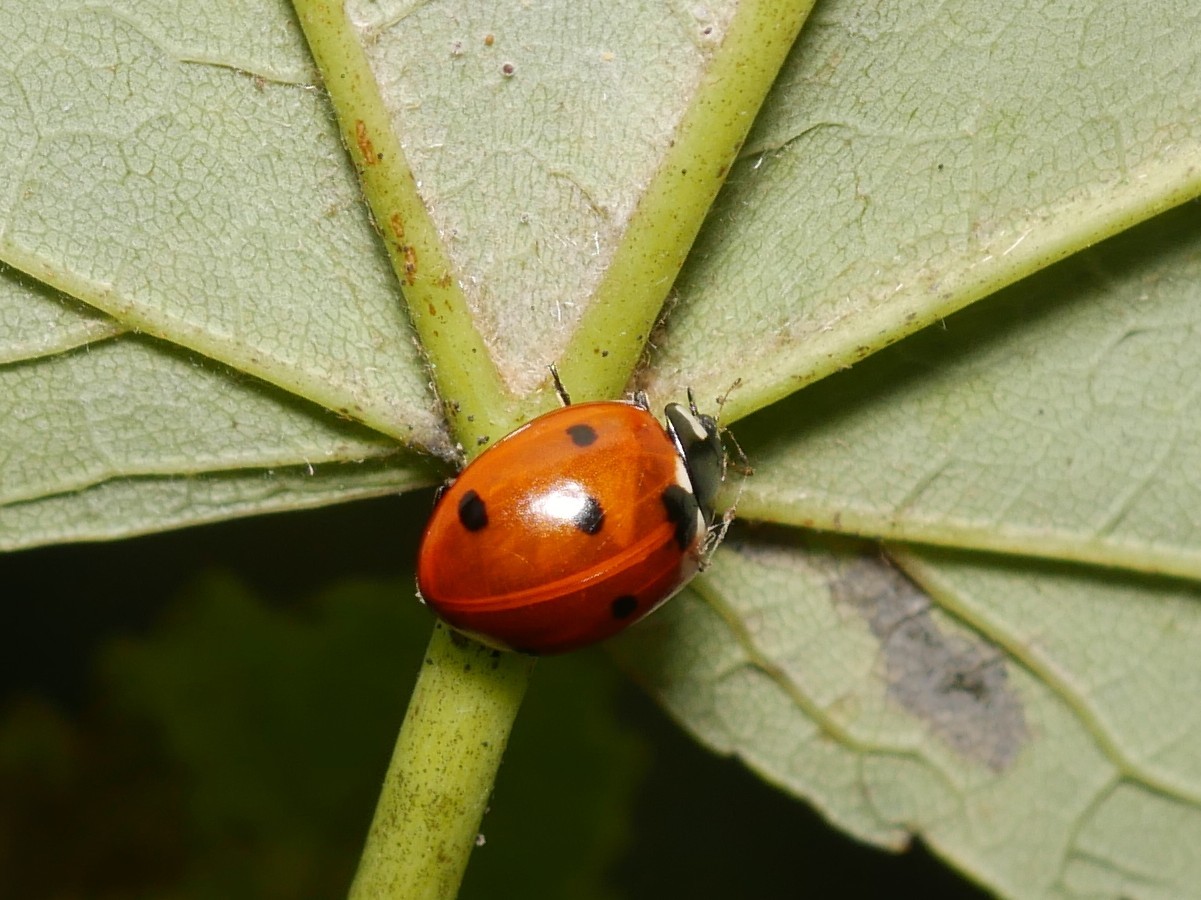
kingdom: Animalia
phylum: Arthropoda
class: Insecta
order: Coleoptera
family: Coccinellidae
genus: Coccinella
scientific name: Coccinella septempunctata
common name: Sevenspotted lady beetle
